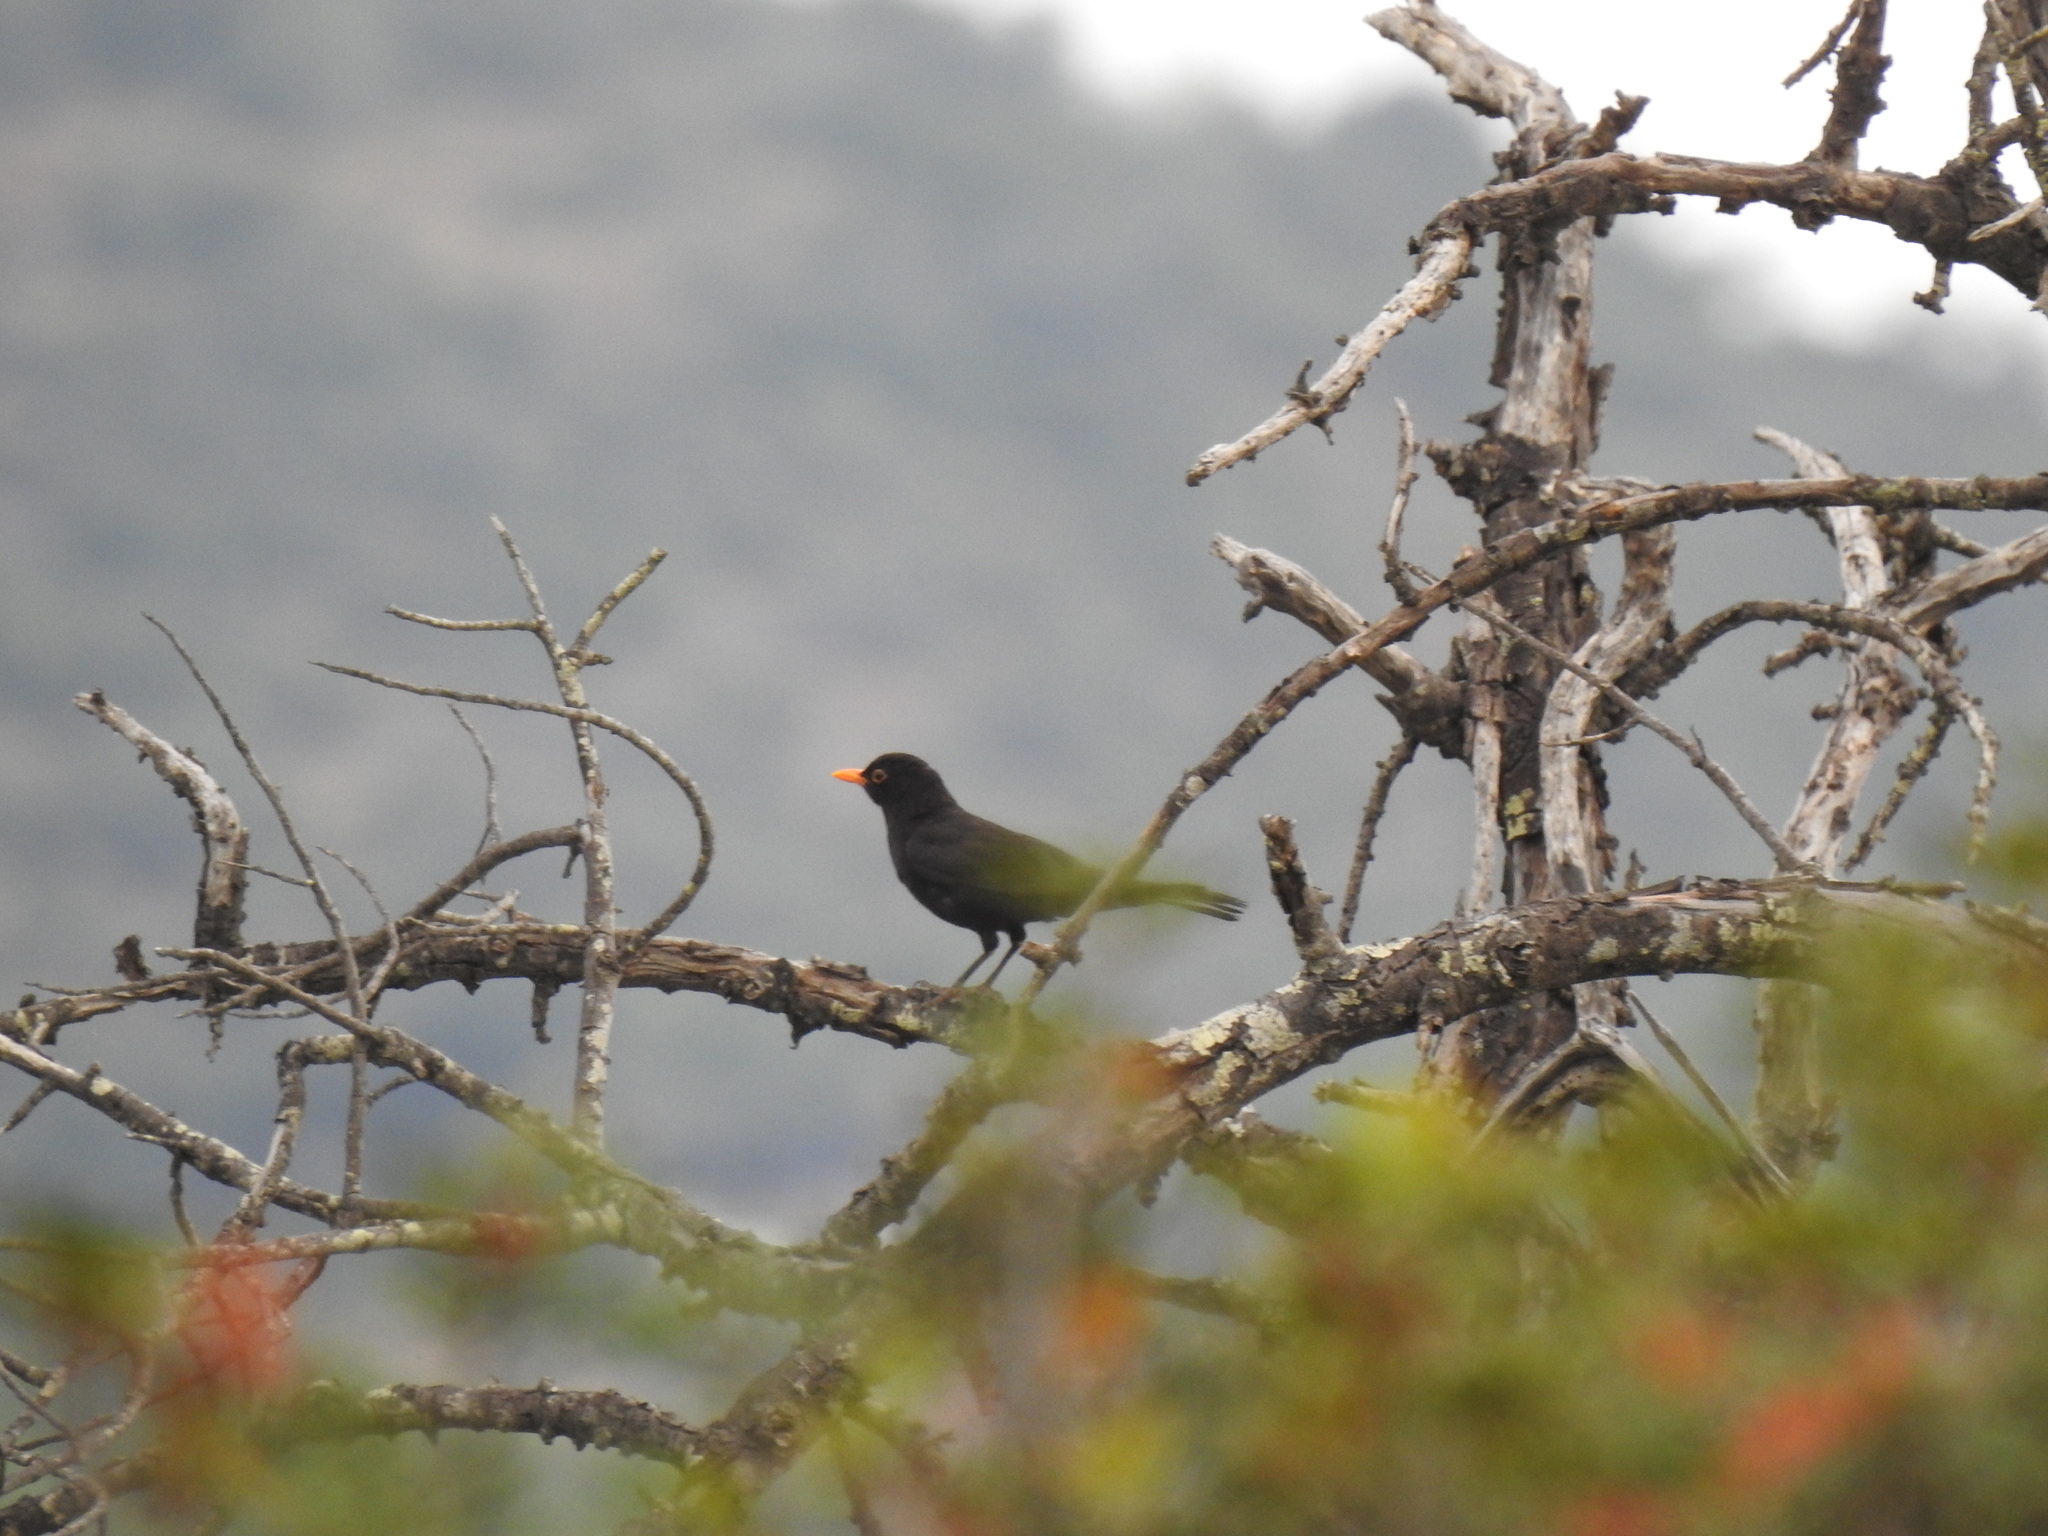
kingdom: Animalia
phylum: Chordata
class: Aves
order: Passeriformes
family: Turdidae
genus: Turdus
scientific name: Turdus merula
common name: Common blackbird
